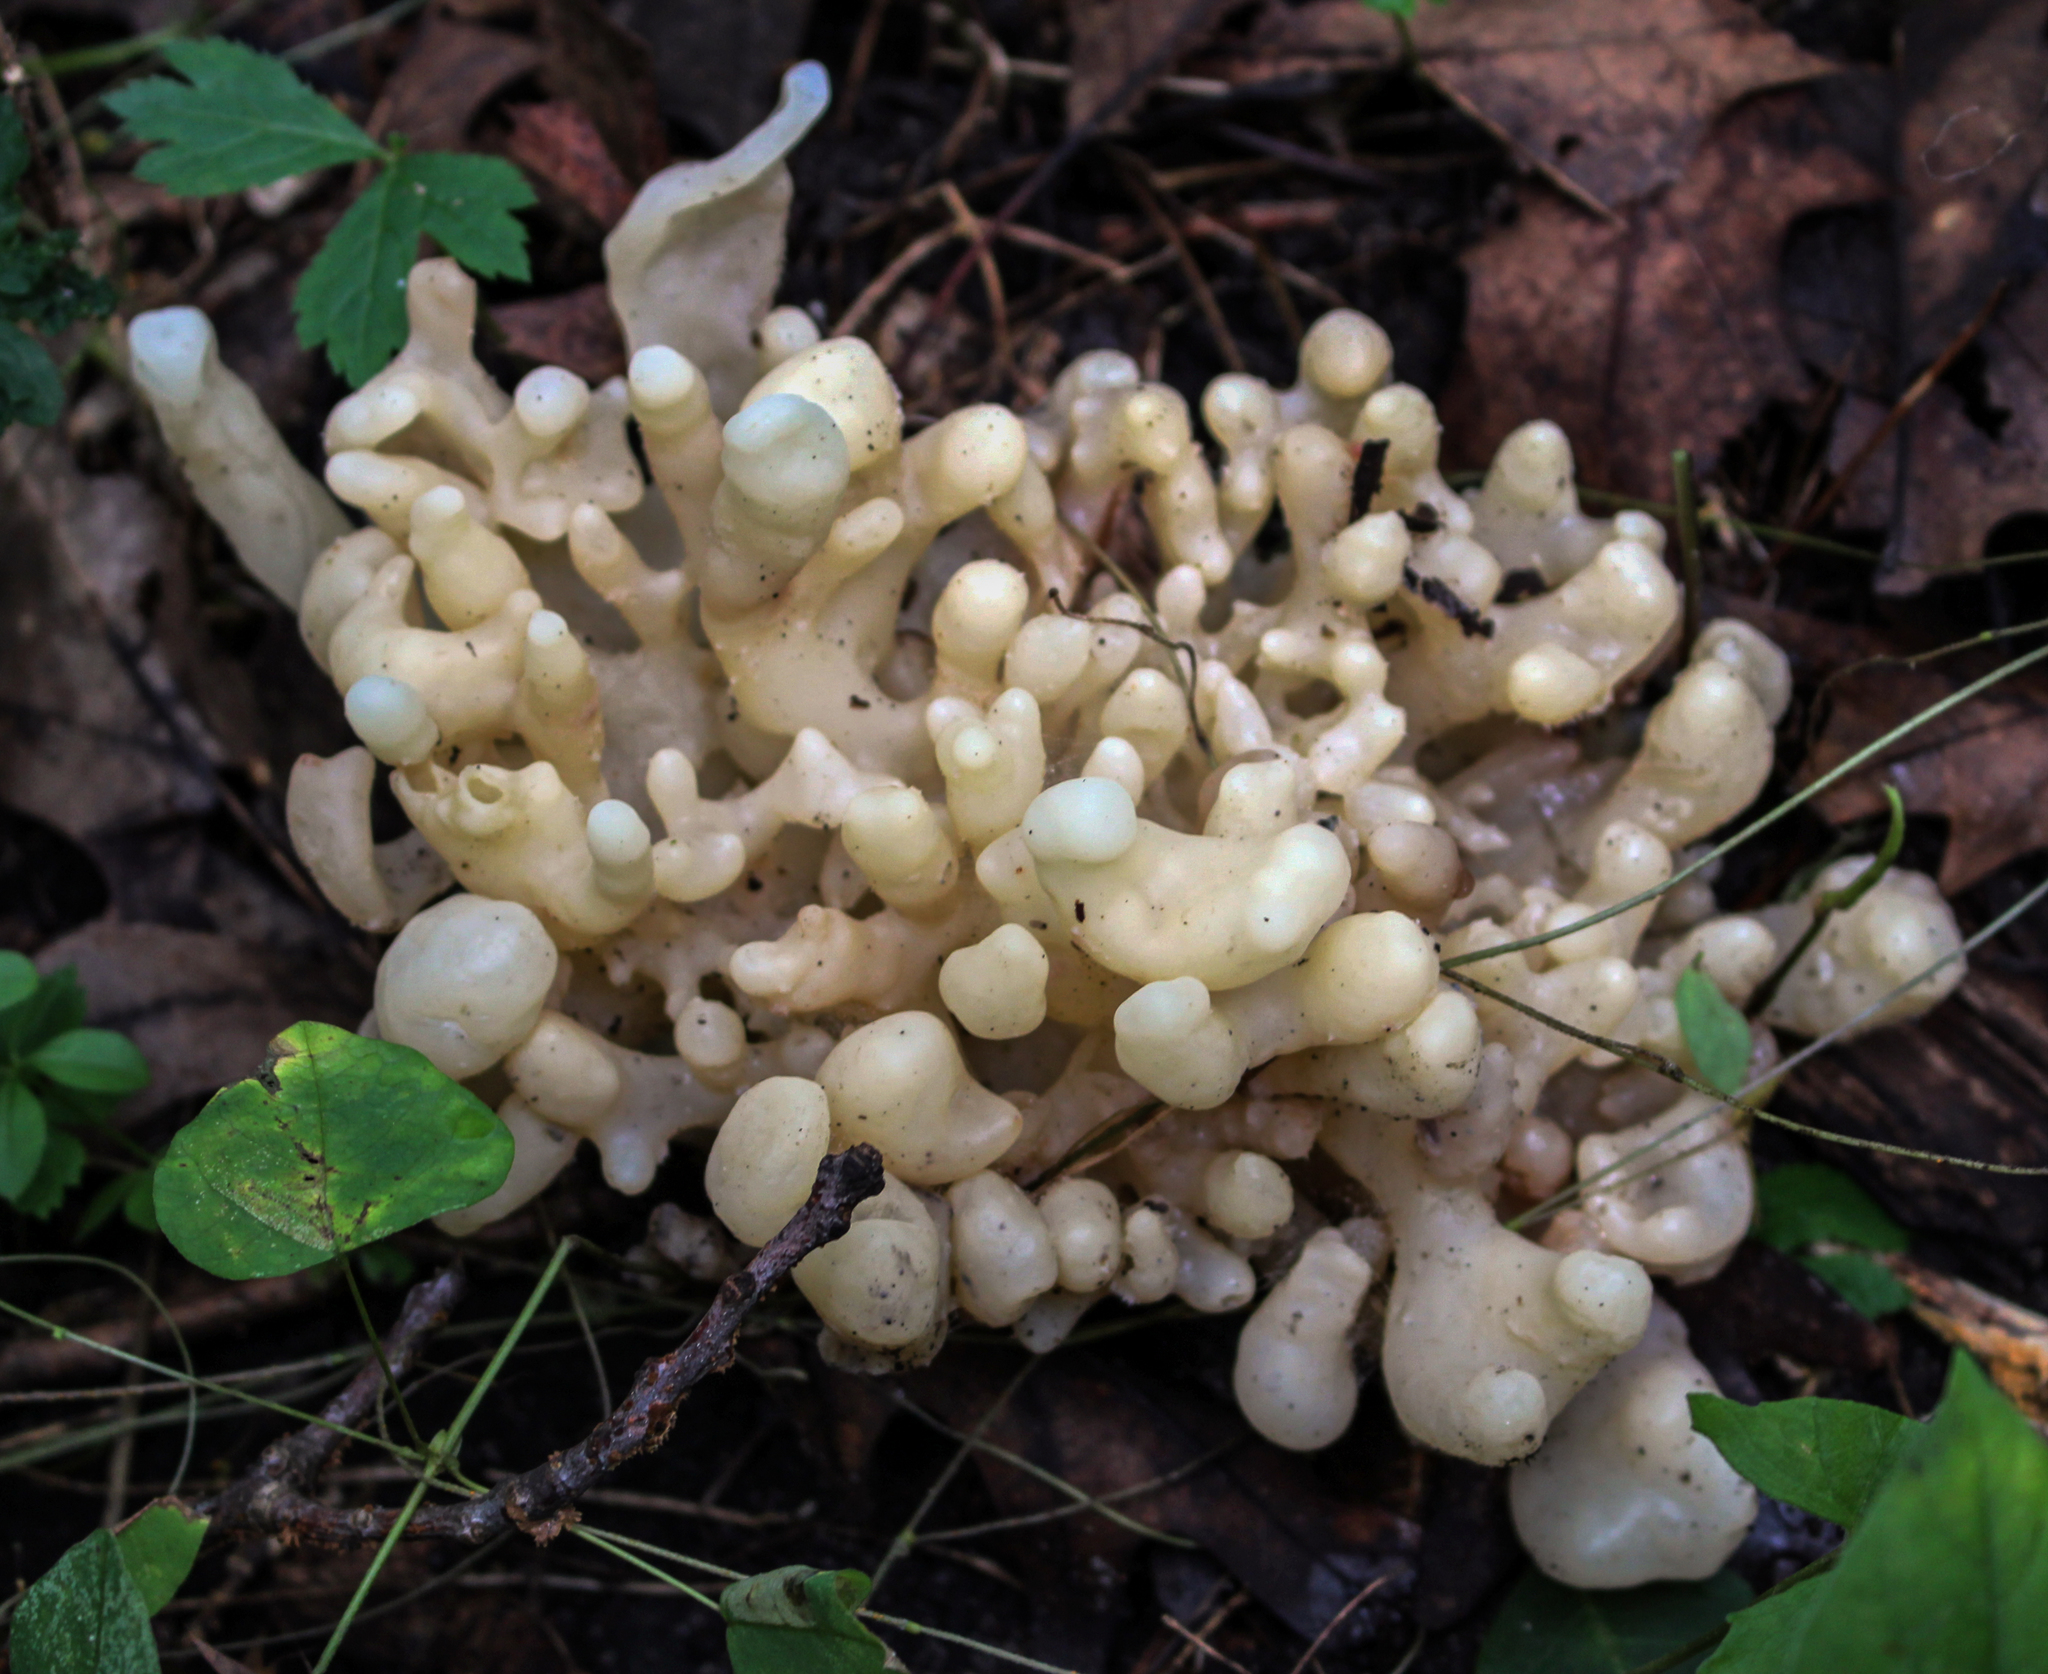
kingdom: Fungi
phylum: Basidiomycota
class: Agaricomycetes
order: Sebacinales
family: Sebacinaceae
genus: Sebacina
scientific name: Sebacina sparassoidea
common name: White coral jelly fungus
